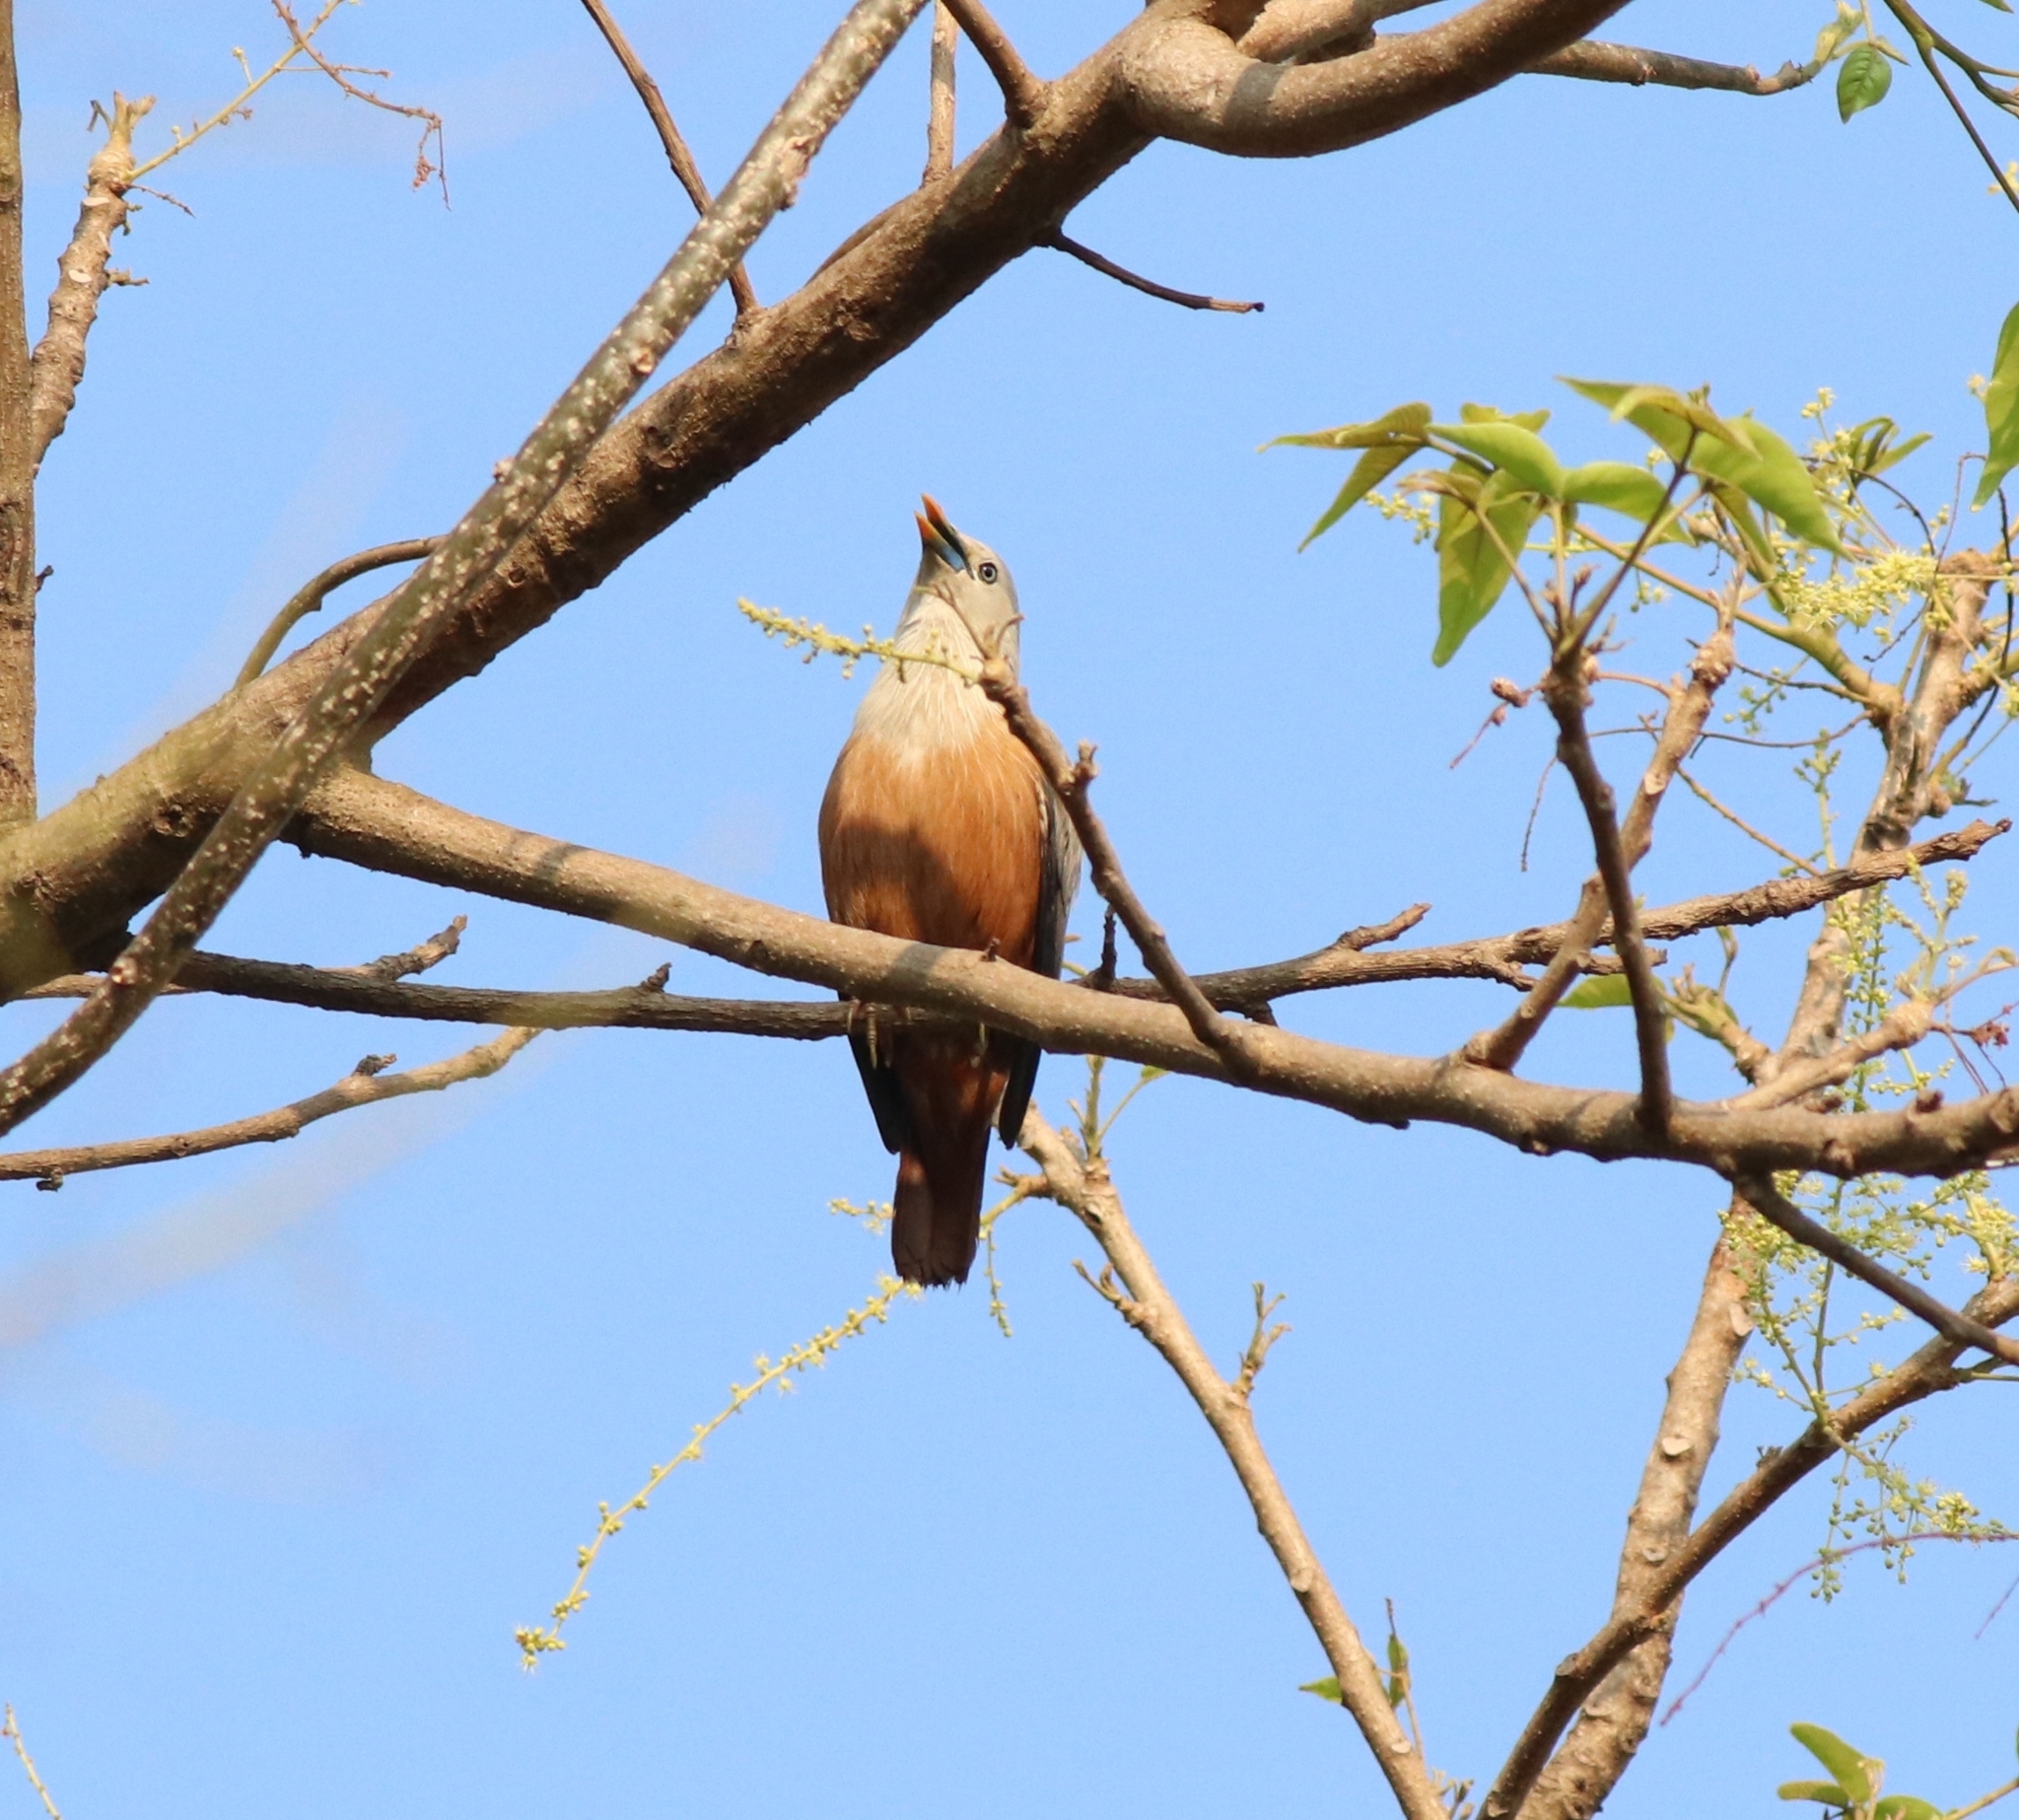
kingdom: Animalia
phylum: Chordata
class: Aves
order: Passeriformes
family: Sturnidae
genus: Sturnia
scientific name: Sturnia blythii
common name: Malabar starling
